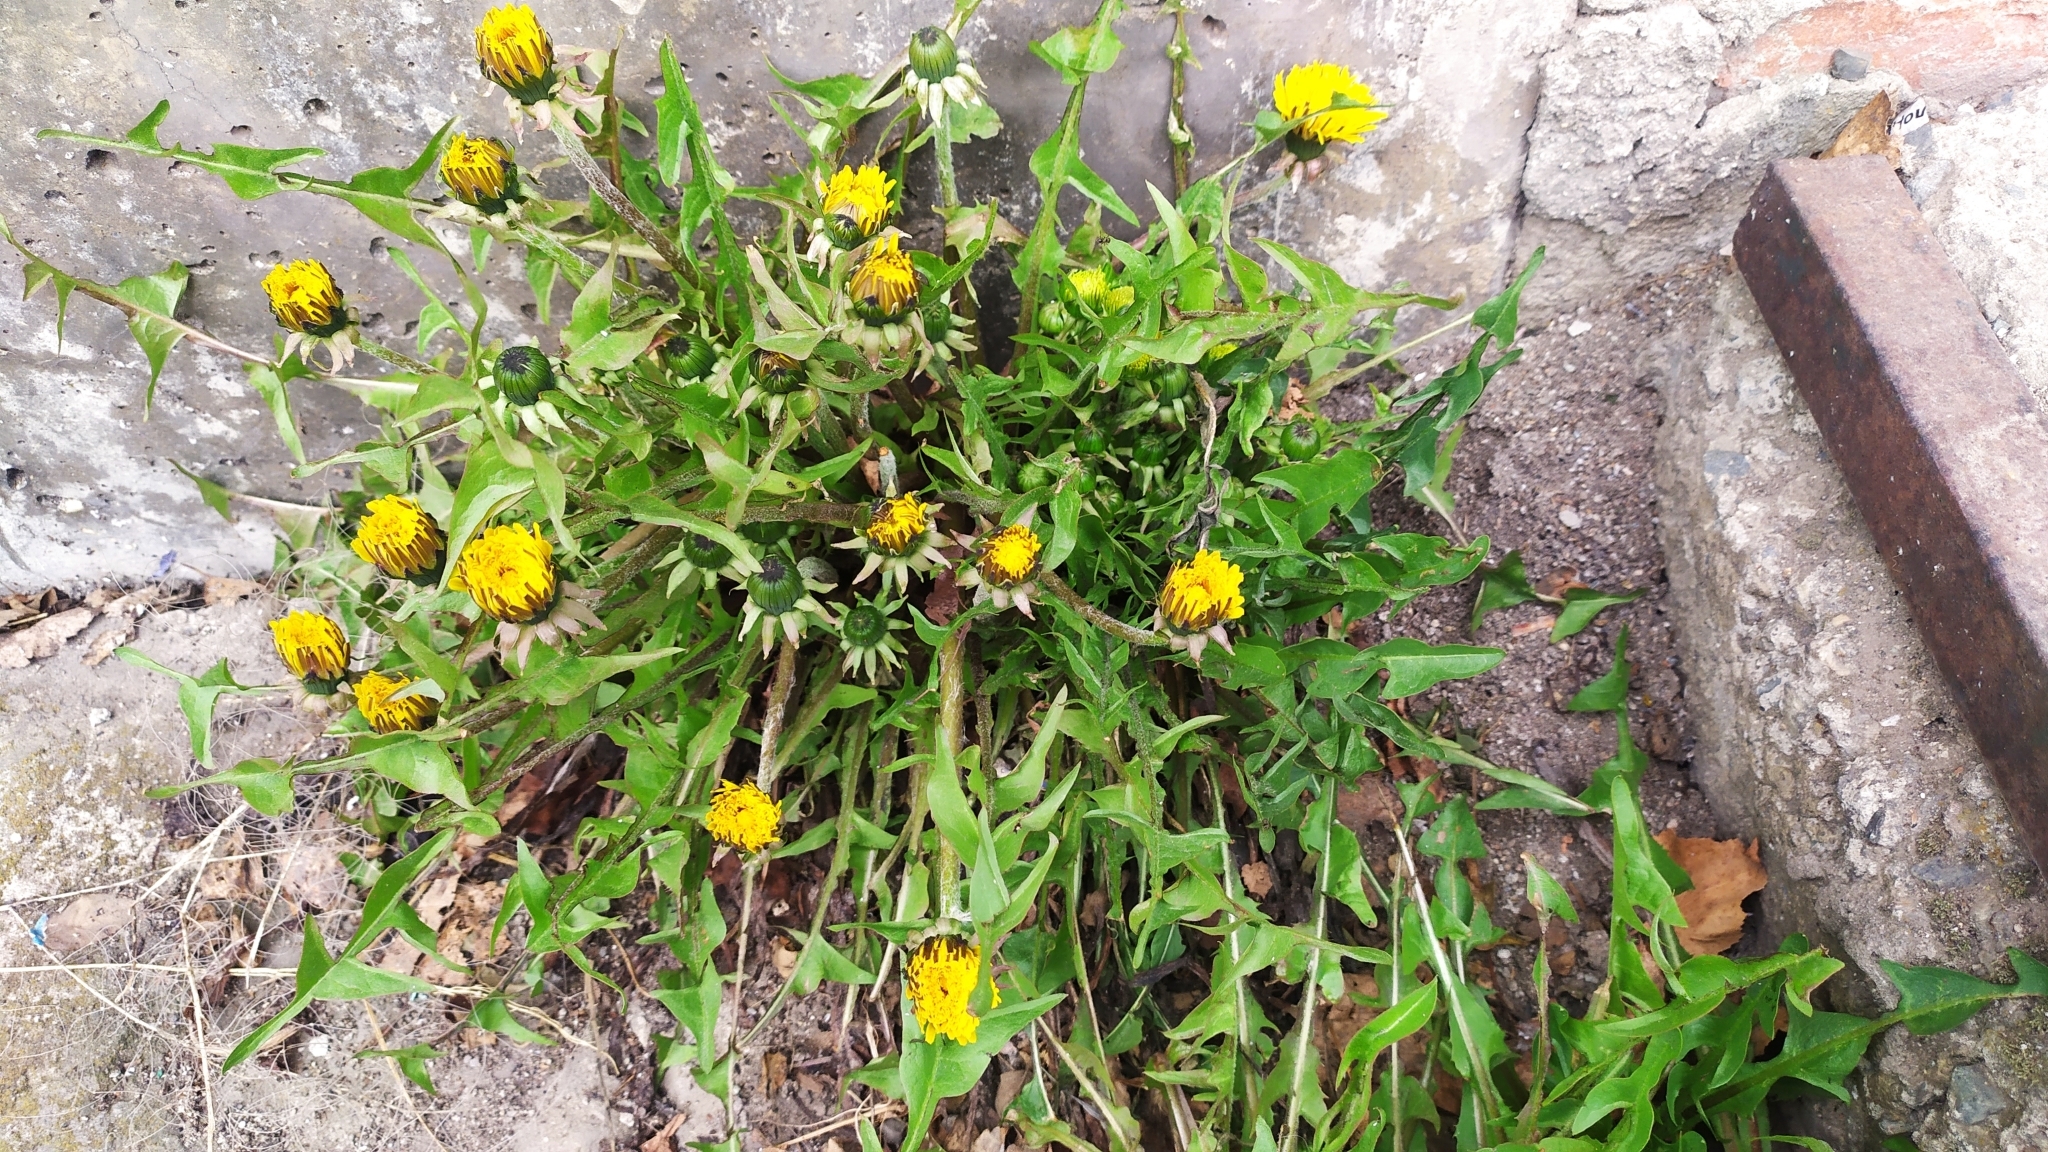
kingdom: Plantae
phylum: Tracheophyta
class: Magnoliopsida
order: Asterales
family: Asteraceae
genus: Taraxacum
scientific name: Taraxacum officinale
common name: Common dandelion
